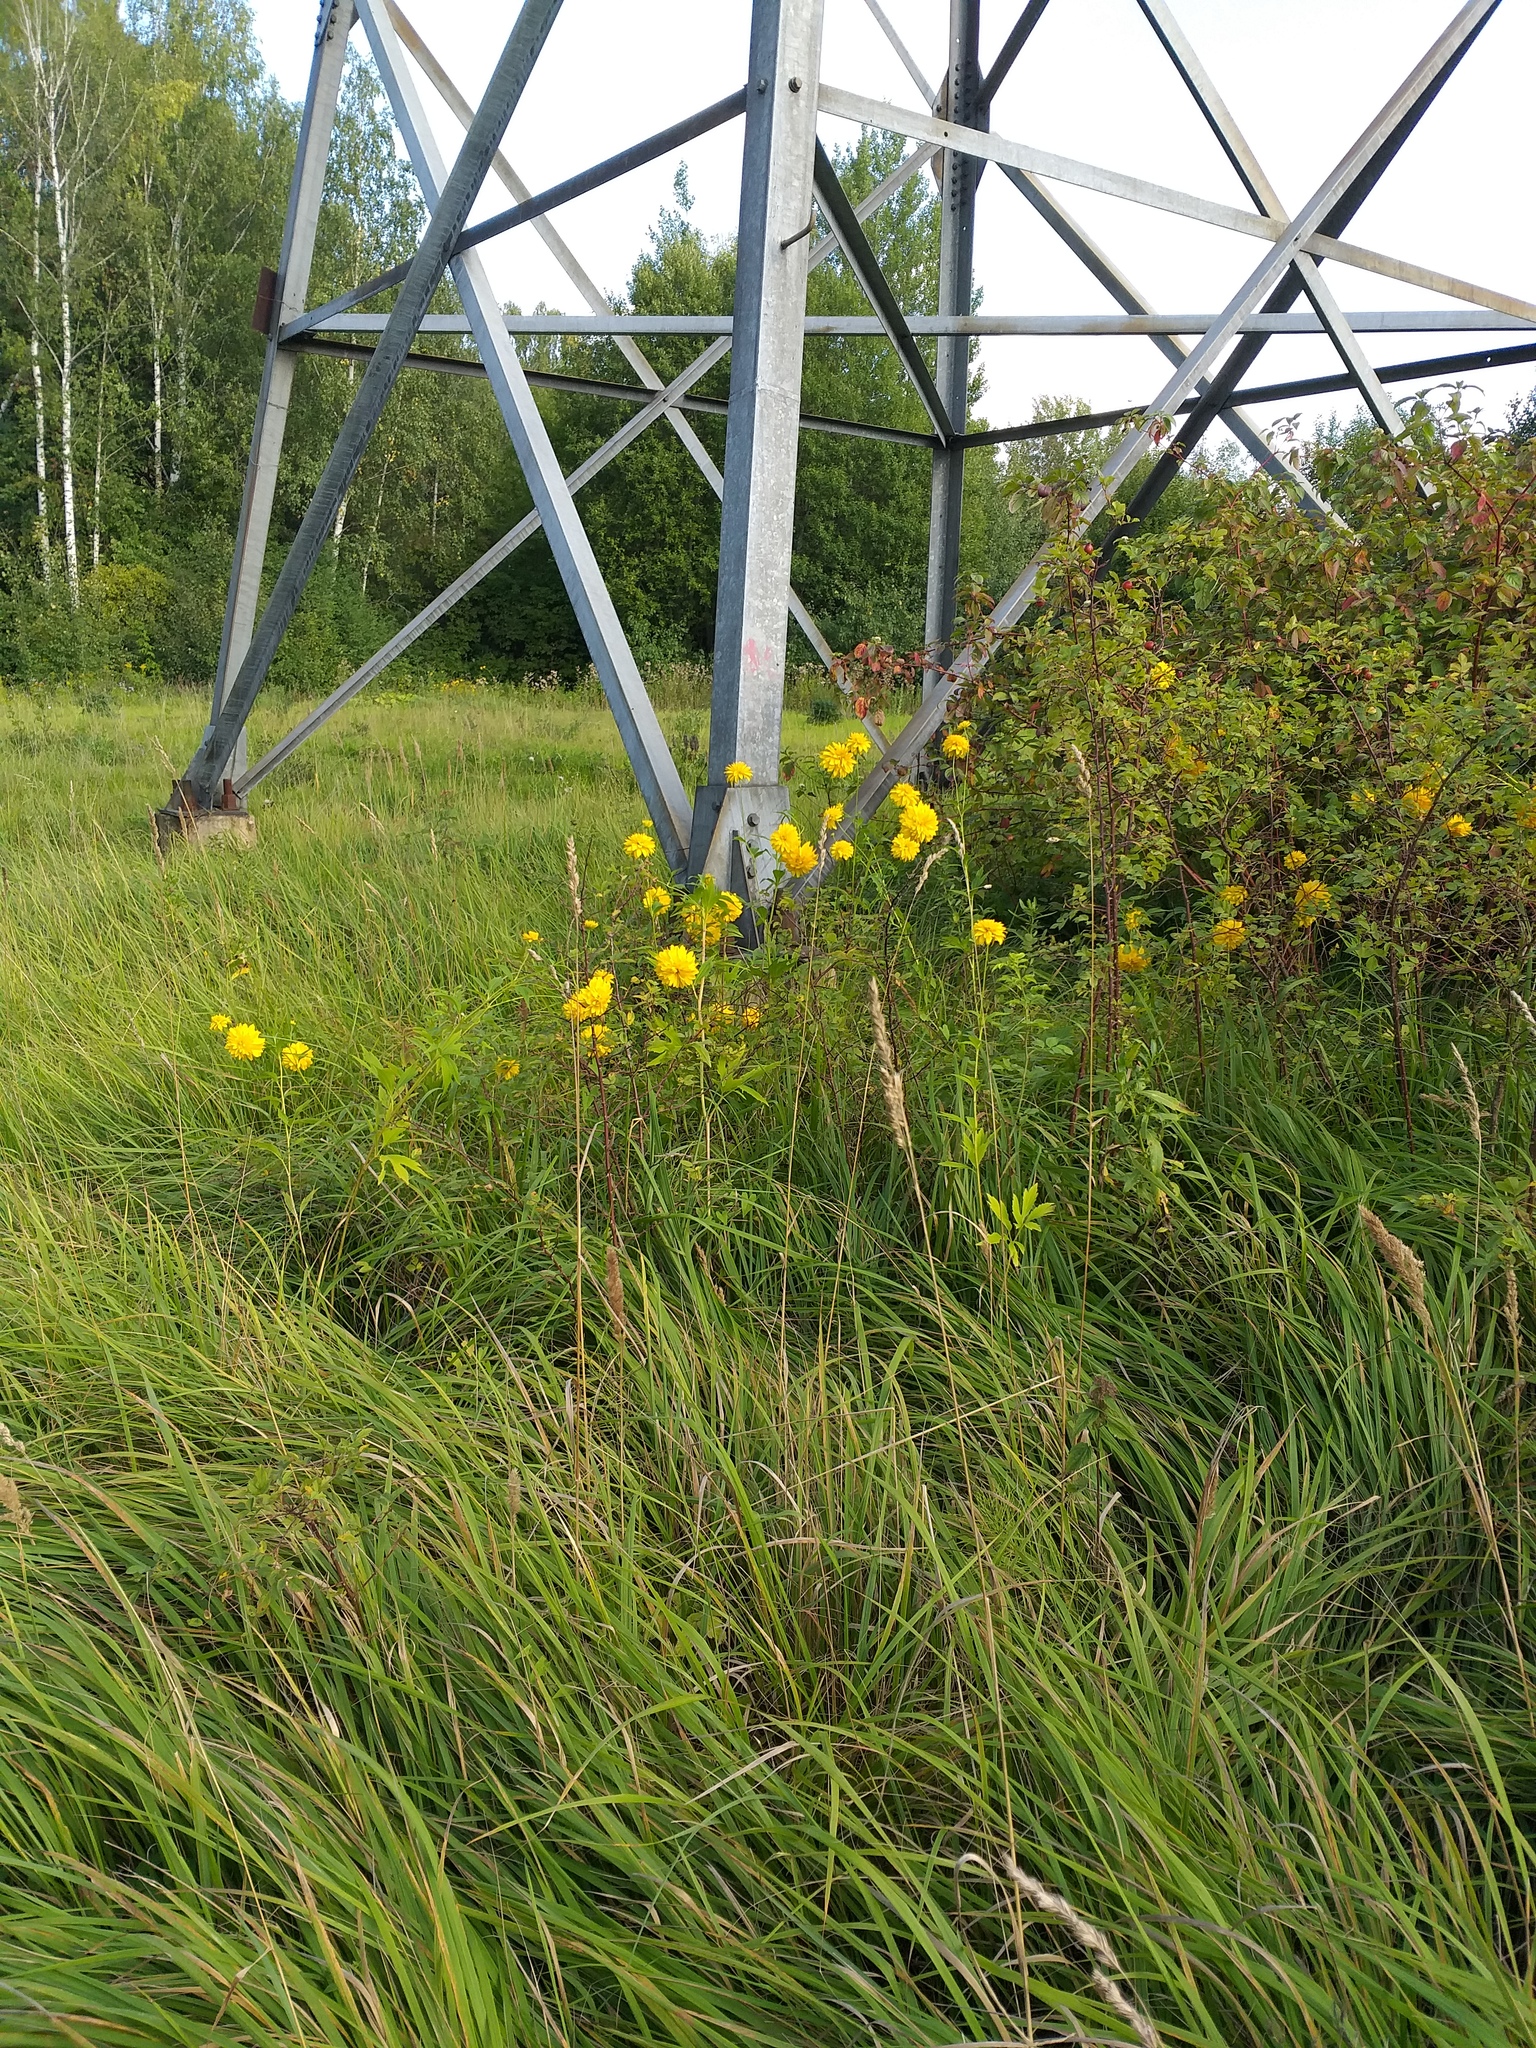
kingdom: Plantae
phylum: Tracheophyta
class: Magnoliopsida
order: Asterales
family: Asteraceae
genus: Rudbeckia
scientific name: Rudbeckia laciniata
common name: Coneflower
